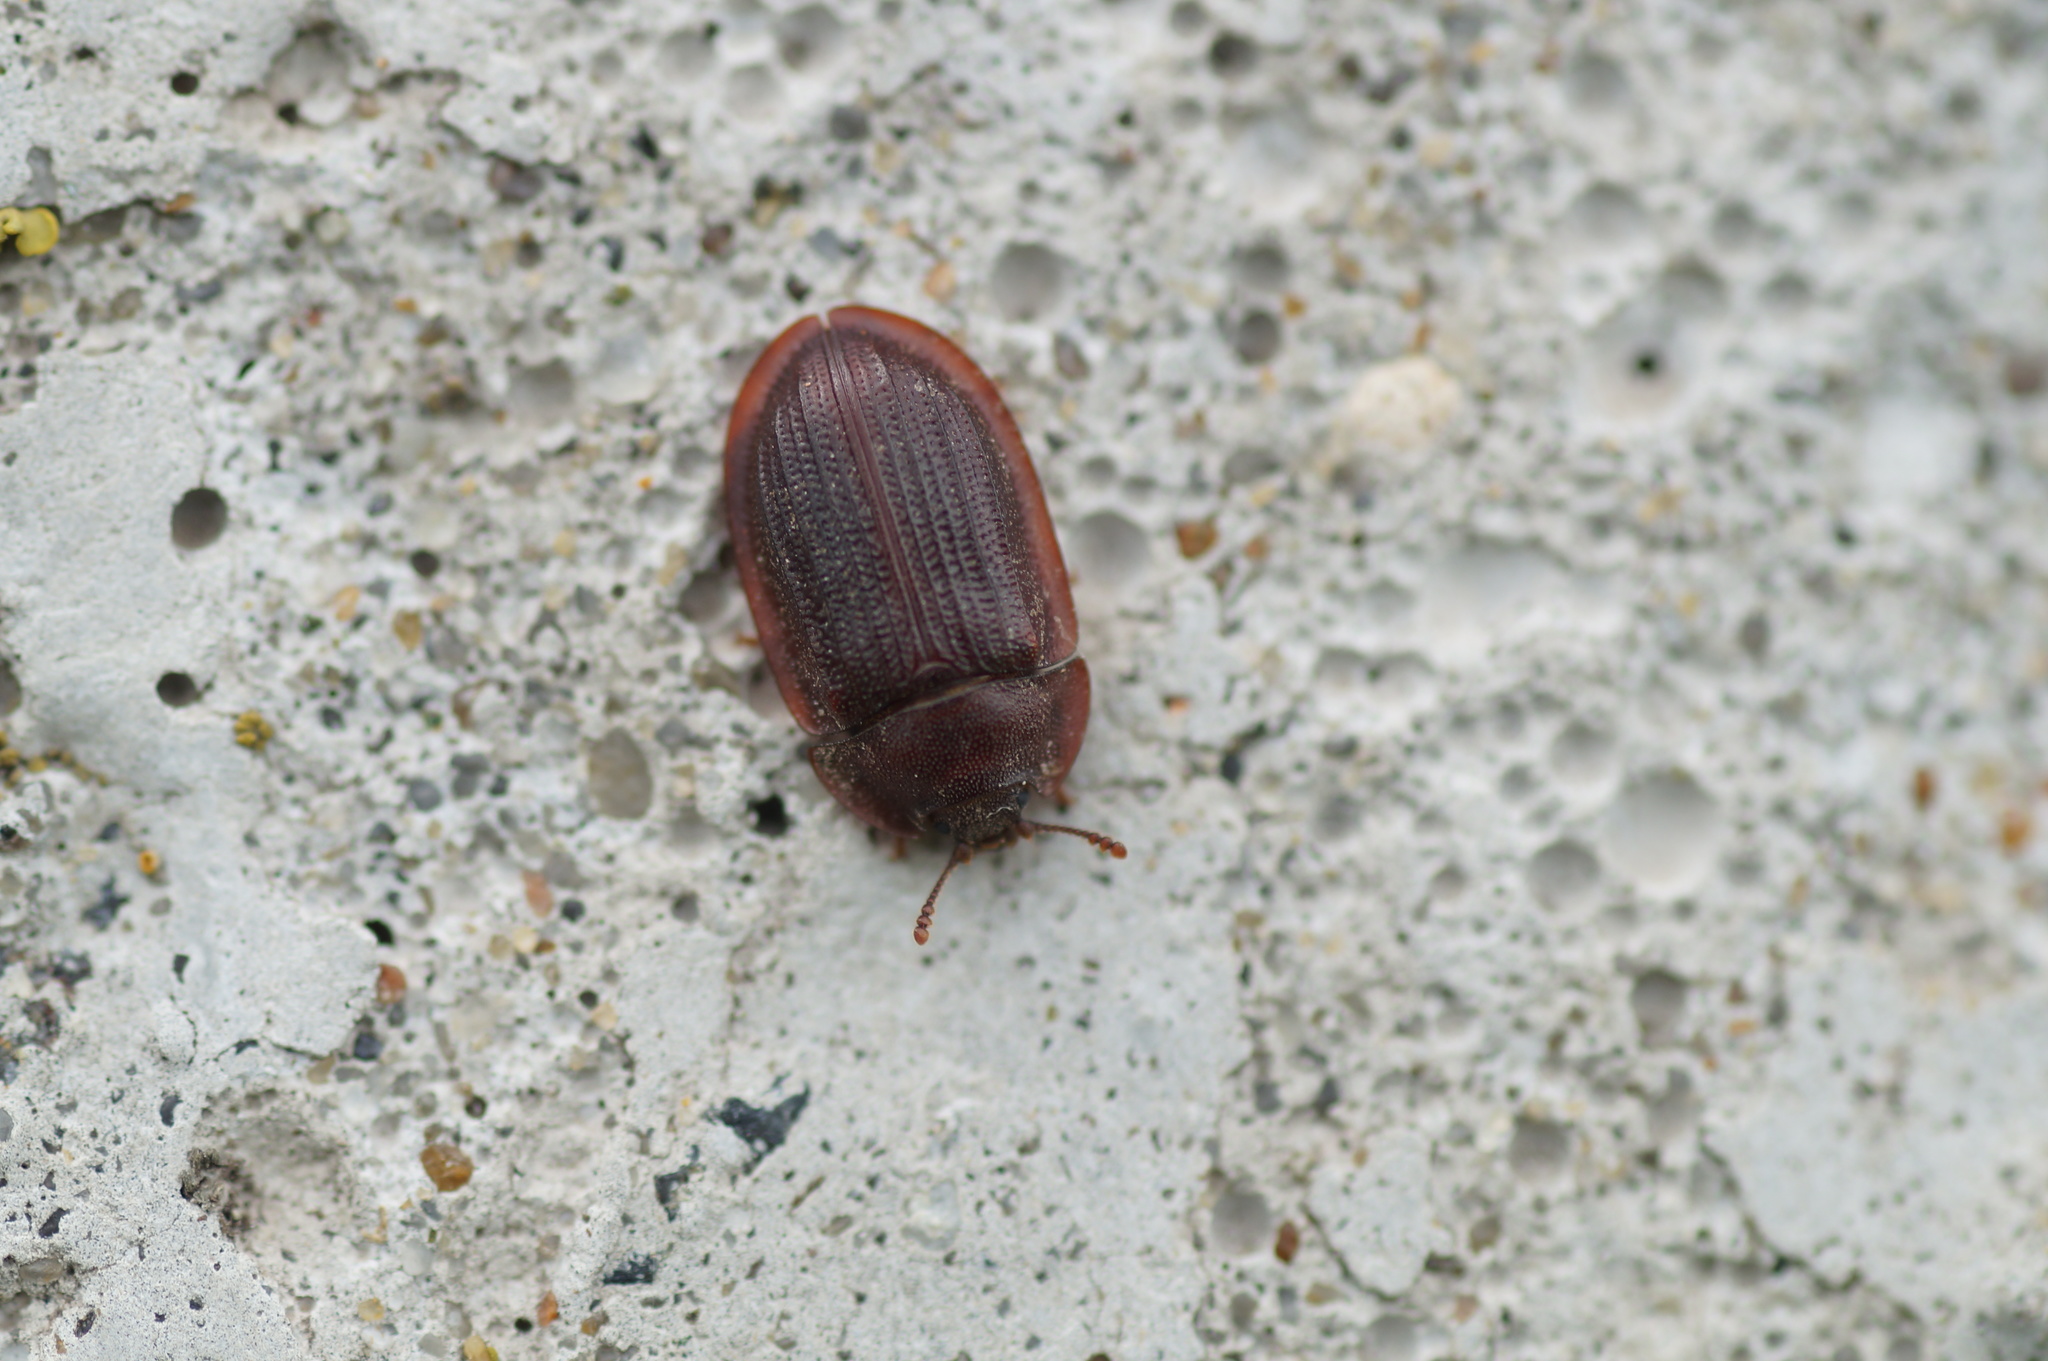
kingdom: Animalia
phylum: Arthropoda
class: Insecta
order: Coleoptera
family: Trogossitidae
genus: Peltis
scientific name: Peltis ferruginea
